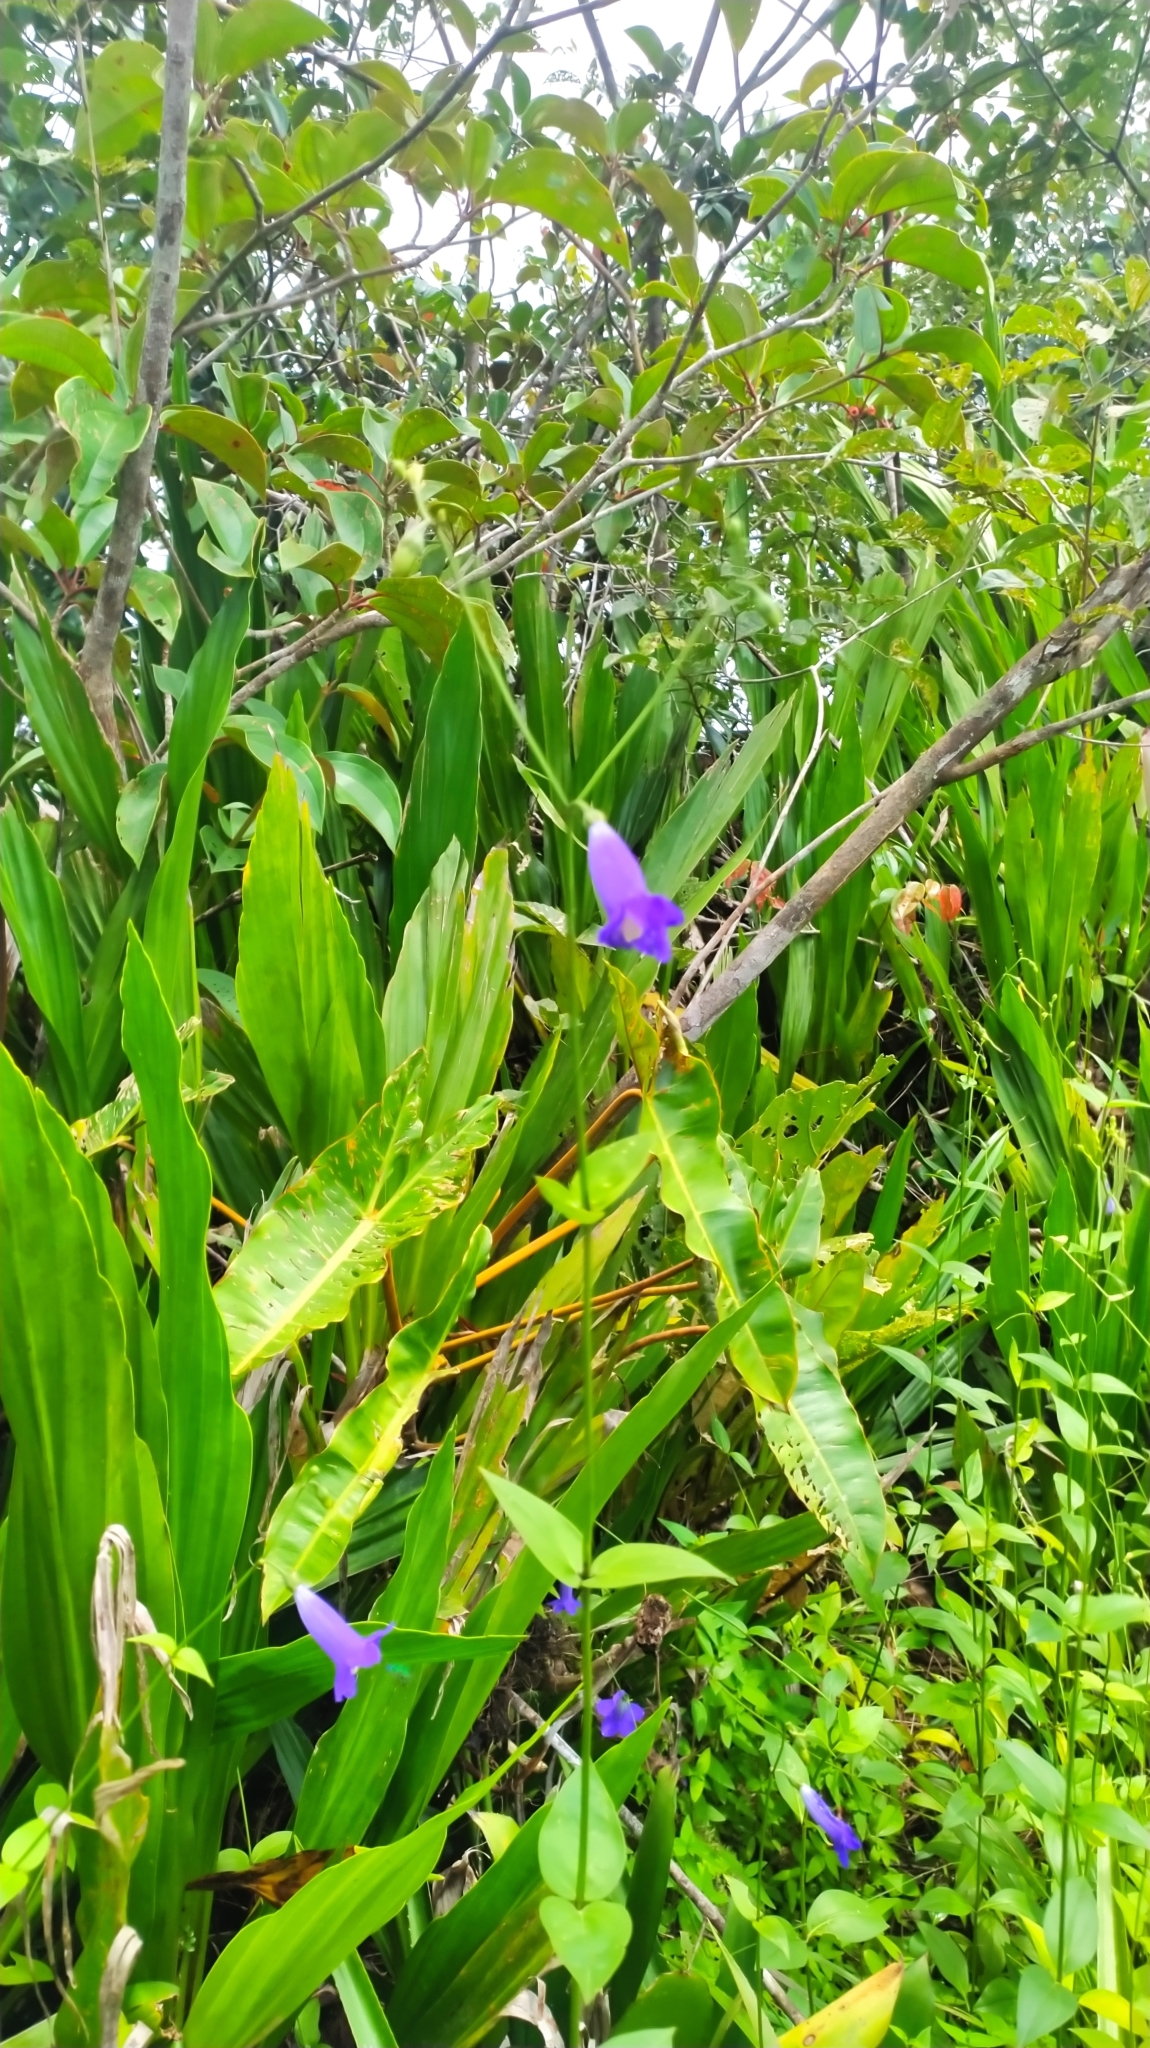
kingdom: Plantae
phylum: Tracheophyta
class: Magnoliopsida
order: Gentianales
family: Gentianaceae
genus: Chelonanthus
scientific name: Chelonanthus purpurascens
